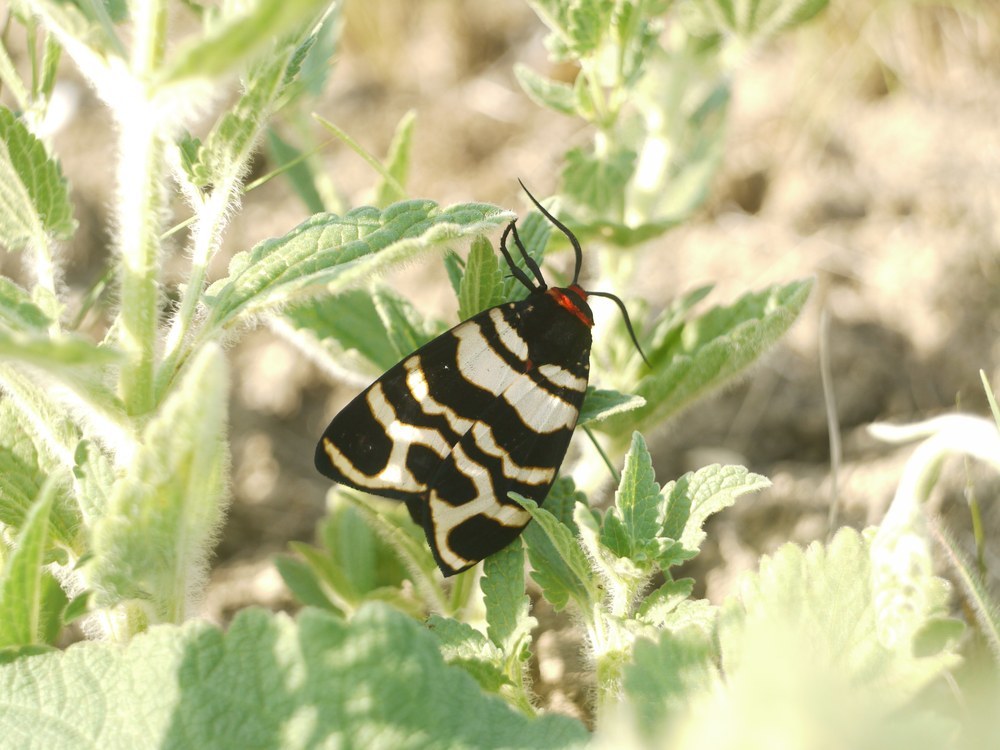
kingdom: Animalia
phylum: Arthropoda
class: Insecta
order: Lepidoptera
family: Erebidae
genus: Eucharia
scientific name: Eucharia festiva
